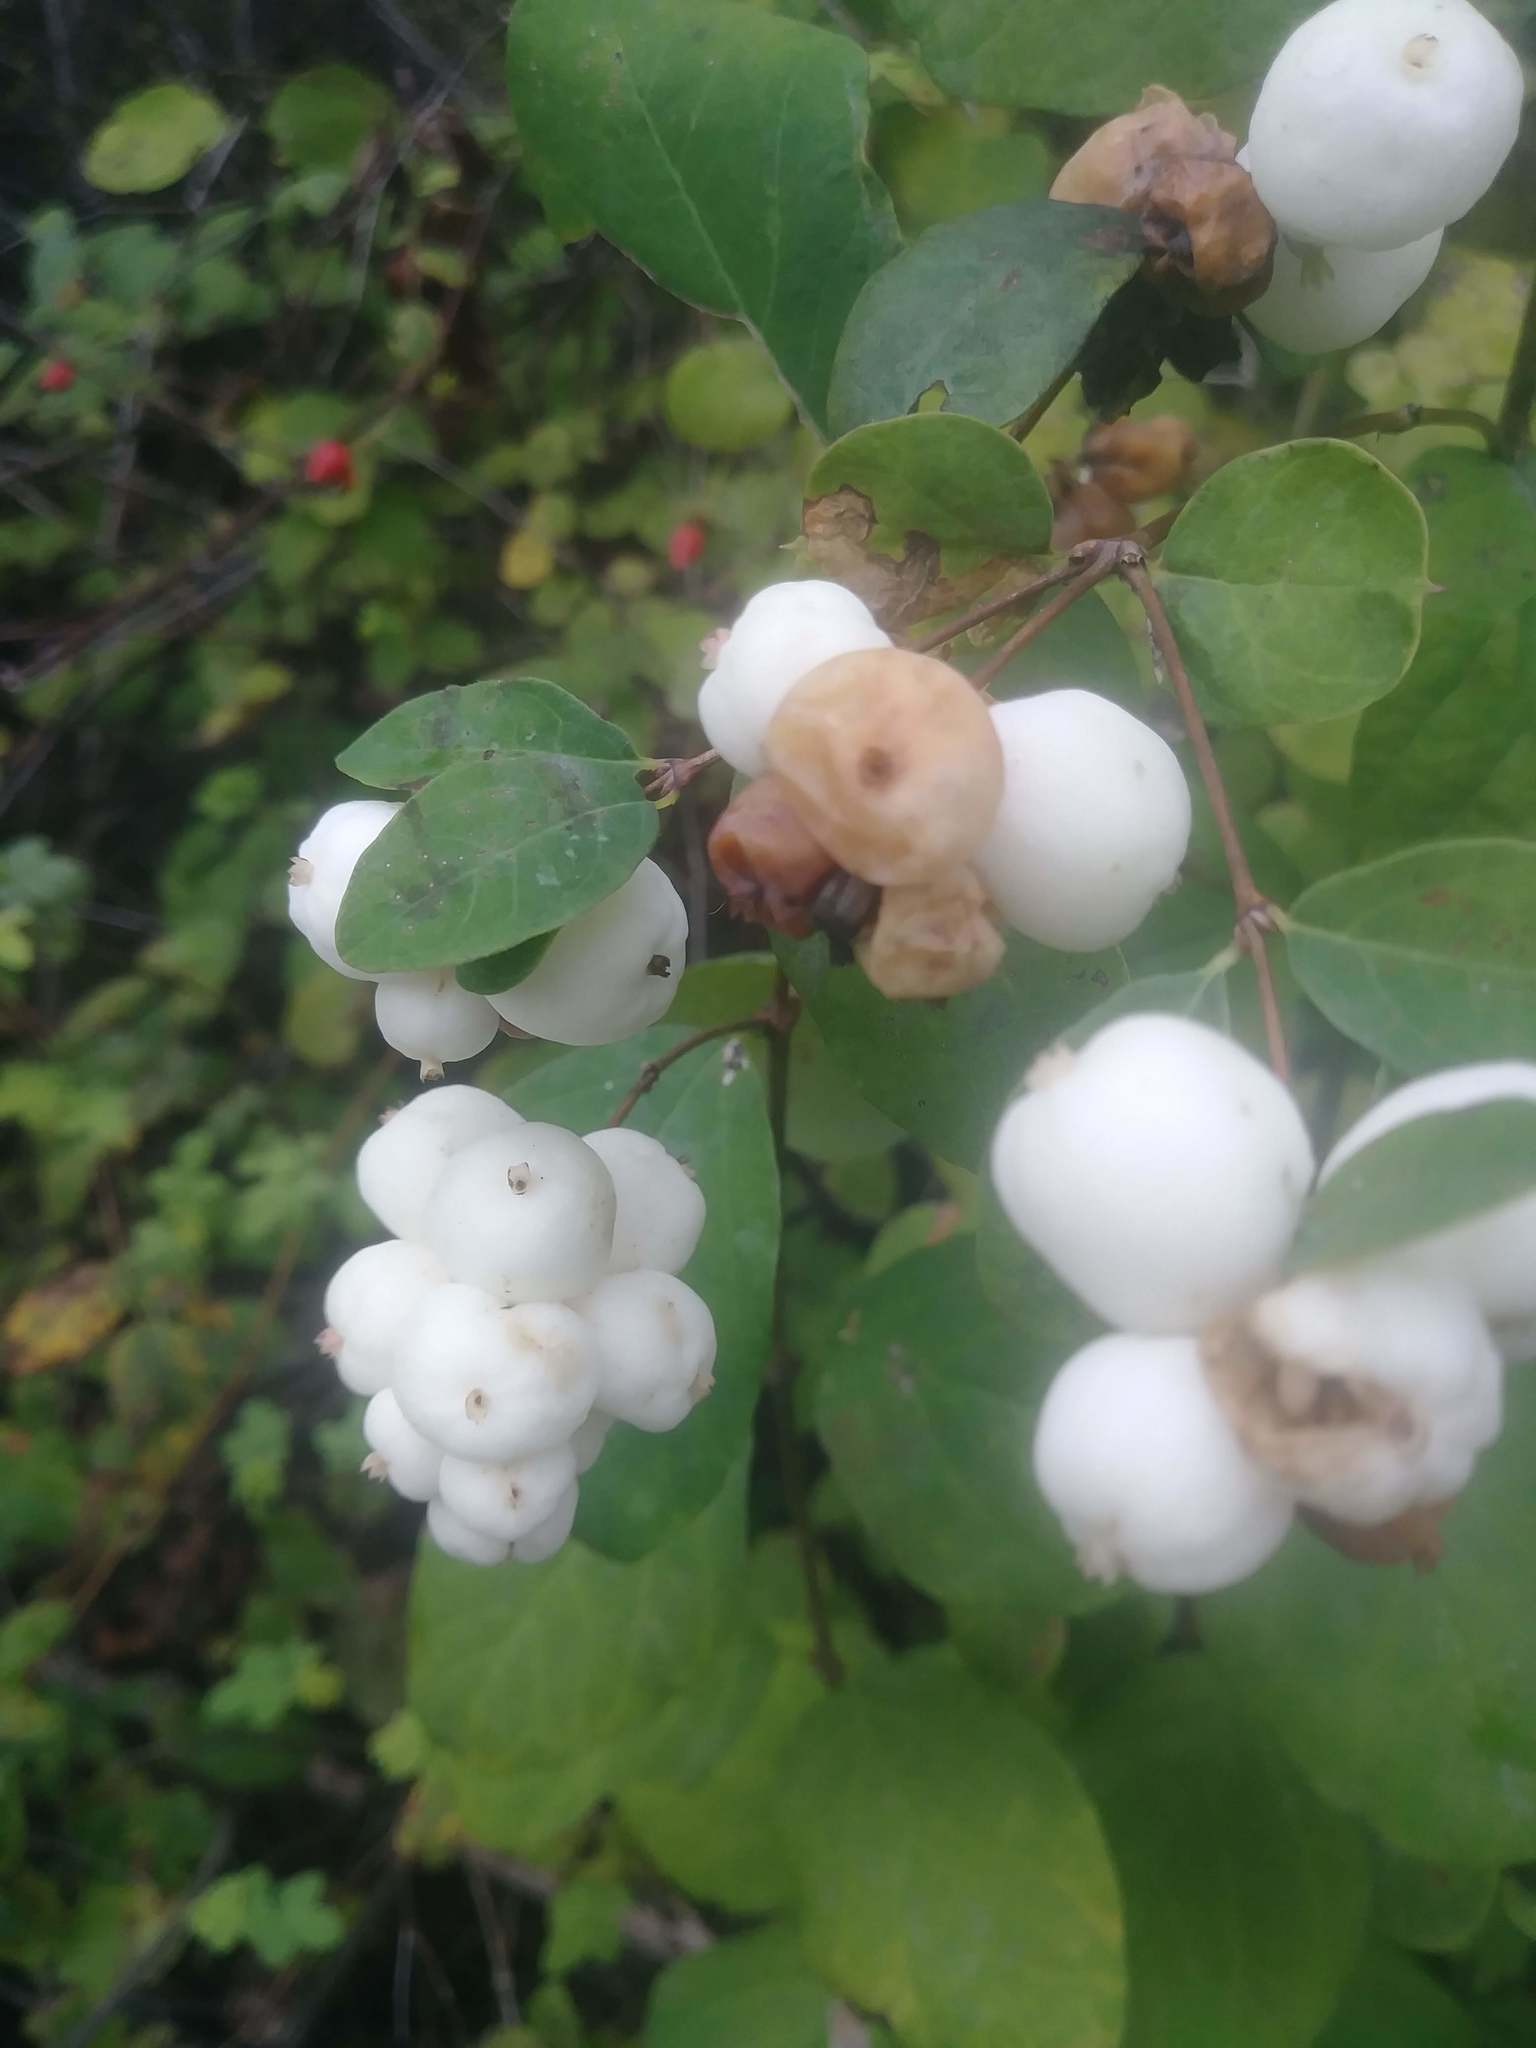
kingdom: Plantae
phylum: Tracheophyta
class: Magnoliopsida
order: Dipsacales
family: Caprifoliaceae
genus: Symphoricarpos
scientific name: Symphoricarpos albus
